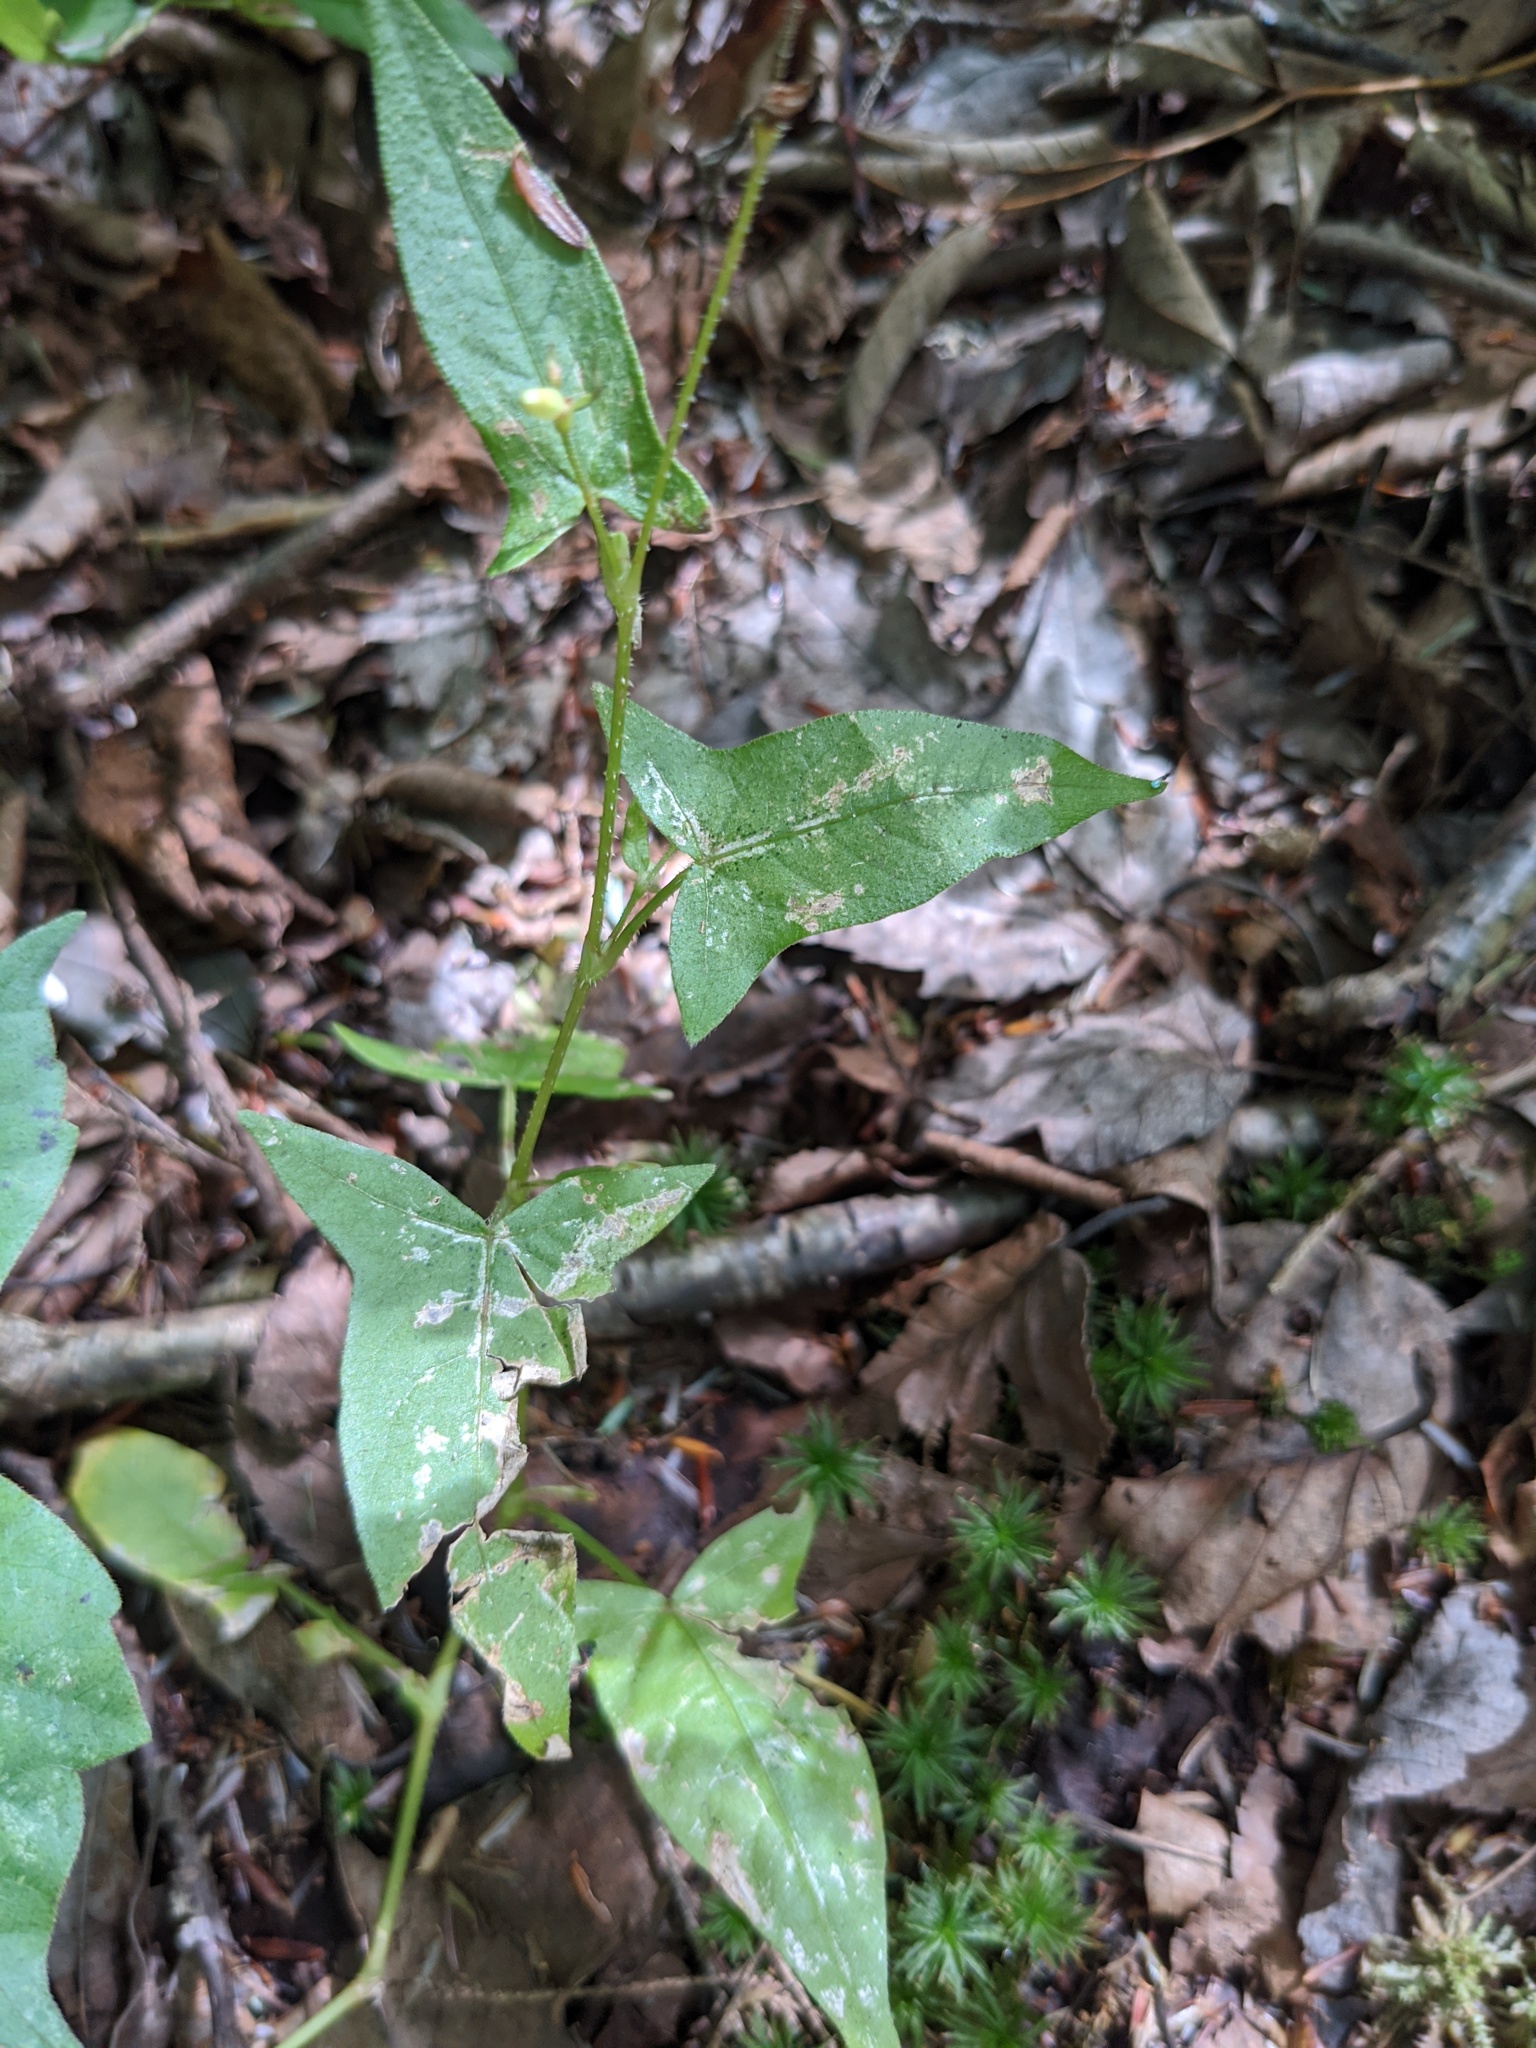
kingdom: Plantae
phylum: Tracheophyta
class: Magnoliopsida
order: Caryophyllales
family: Polygonaceae
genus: Persicaria
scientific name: Persicaria arifolia
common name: Halberd-leaved tear-thumb
